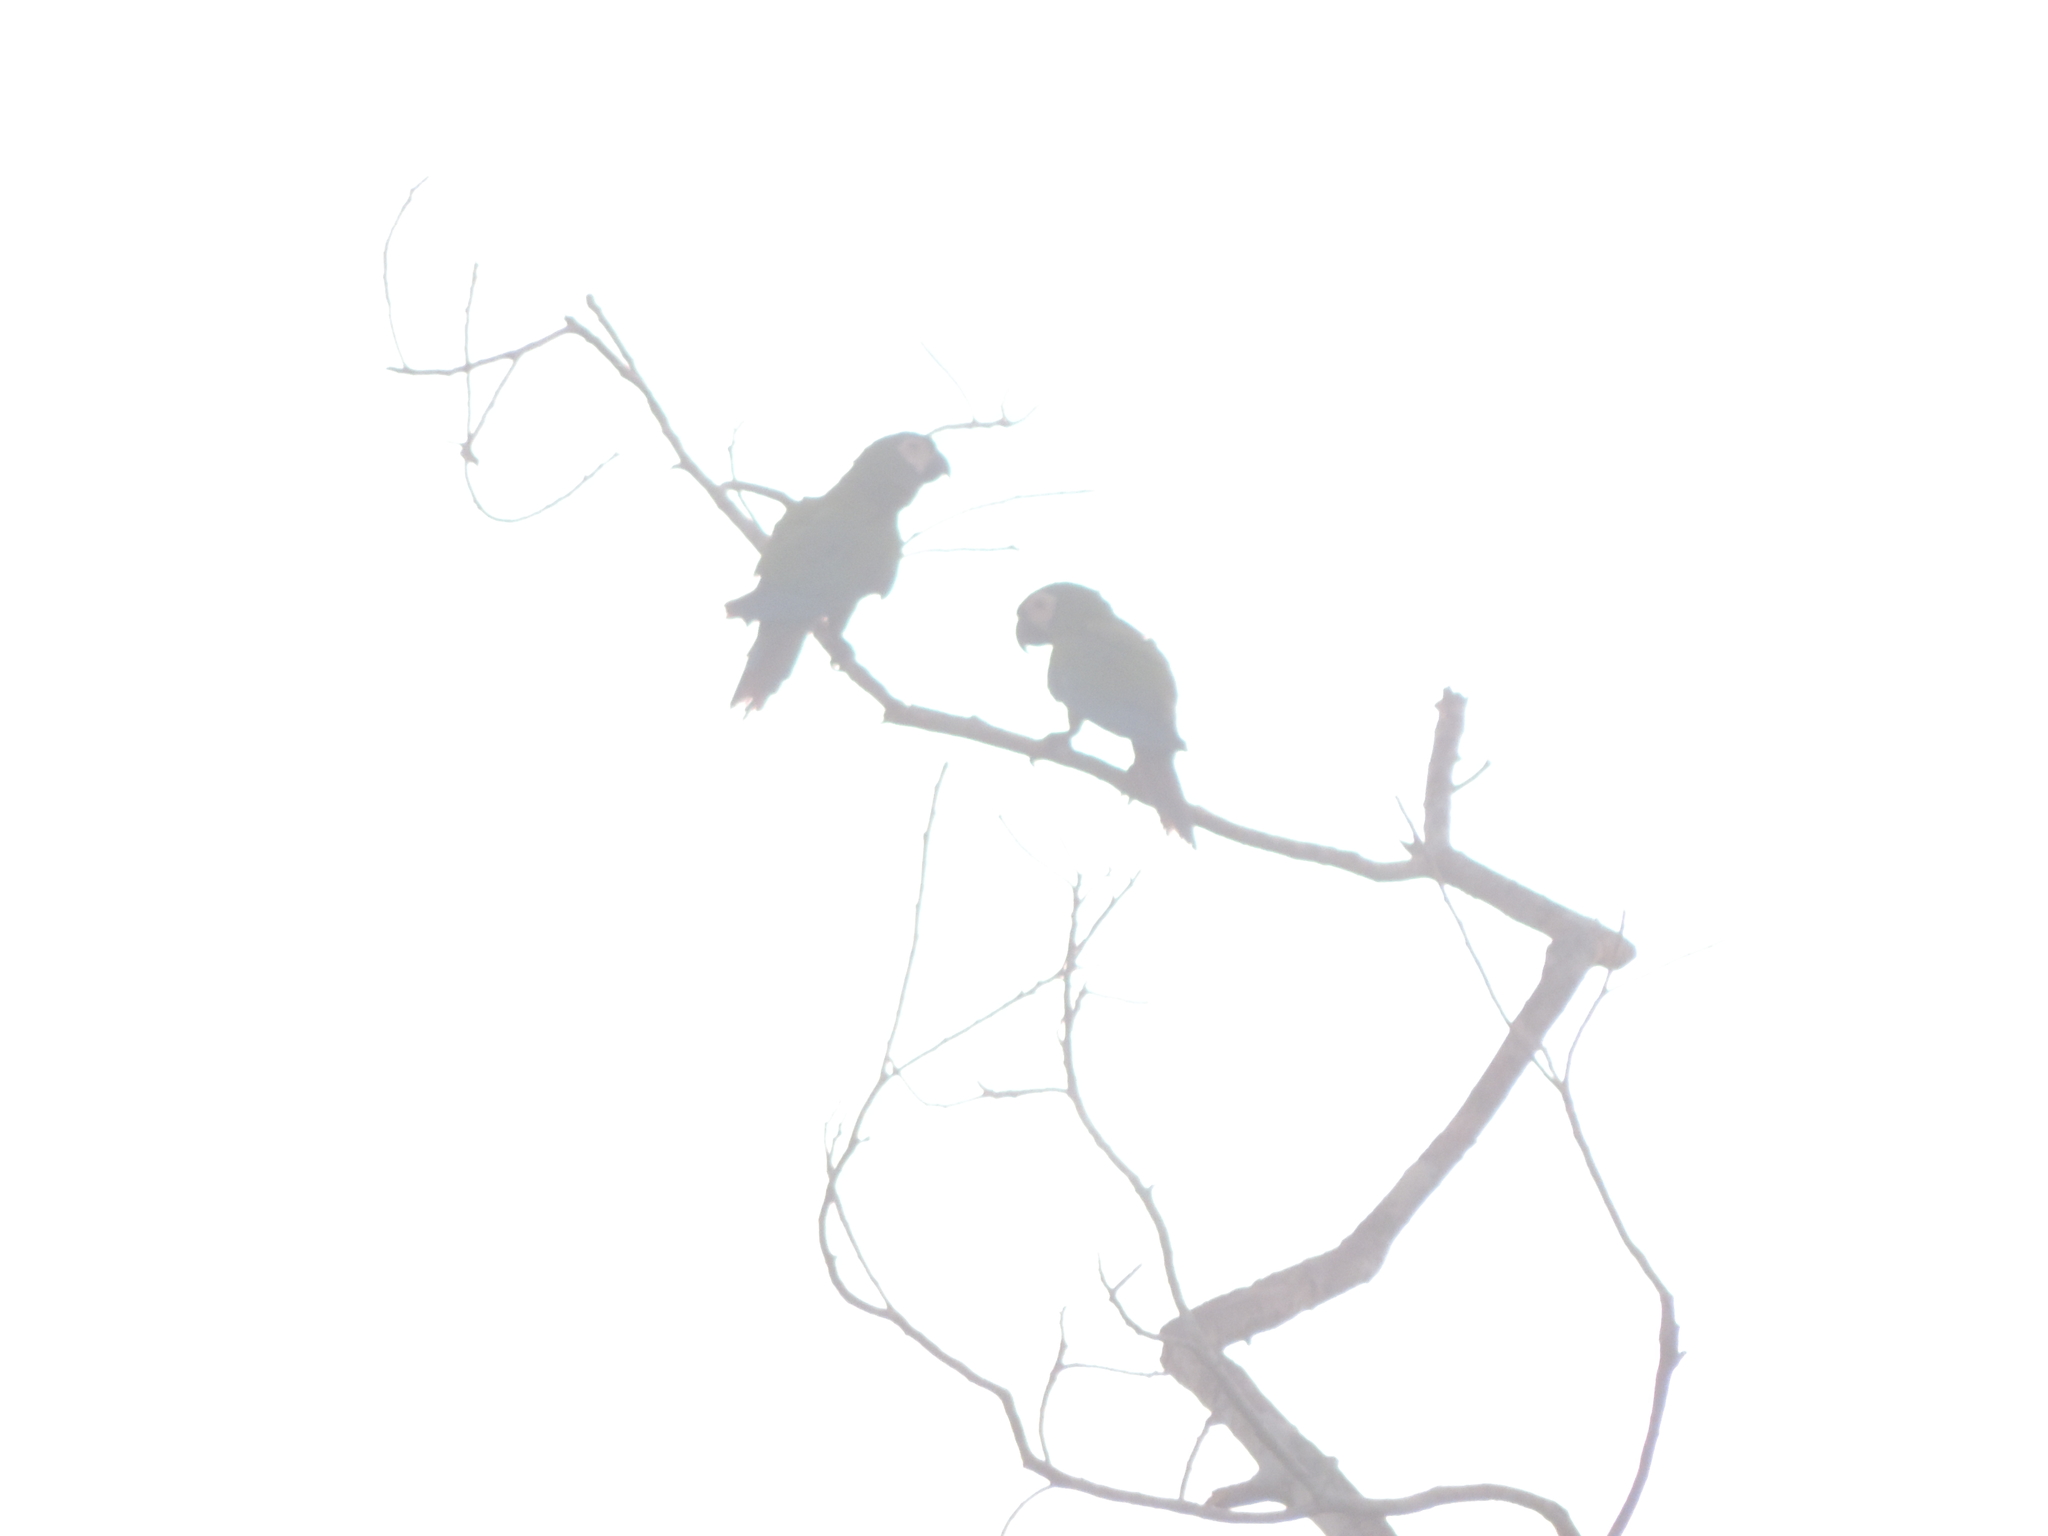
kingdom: Animalia
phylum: Chordata
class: Aves
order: Psittaciformes
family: Psittacidae
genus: Ara
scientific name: Ara severus
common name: Chestnut-fronted macaw
